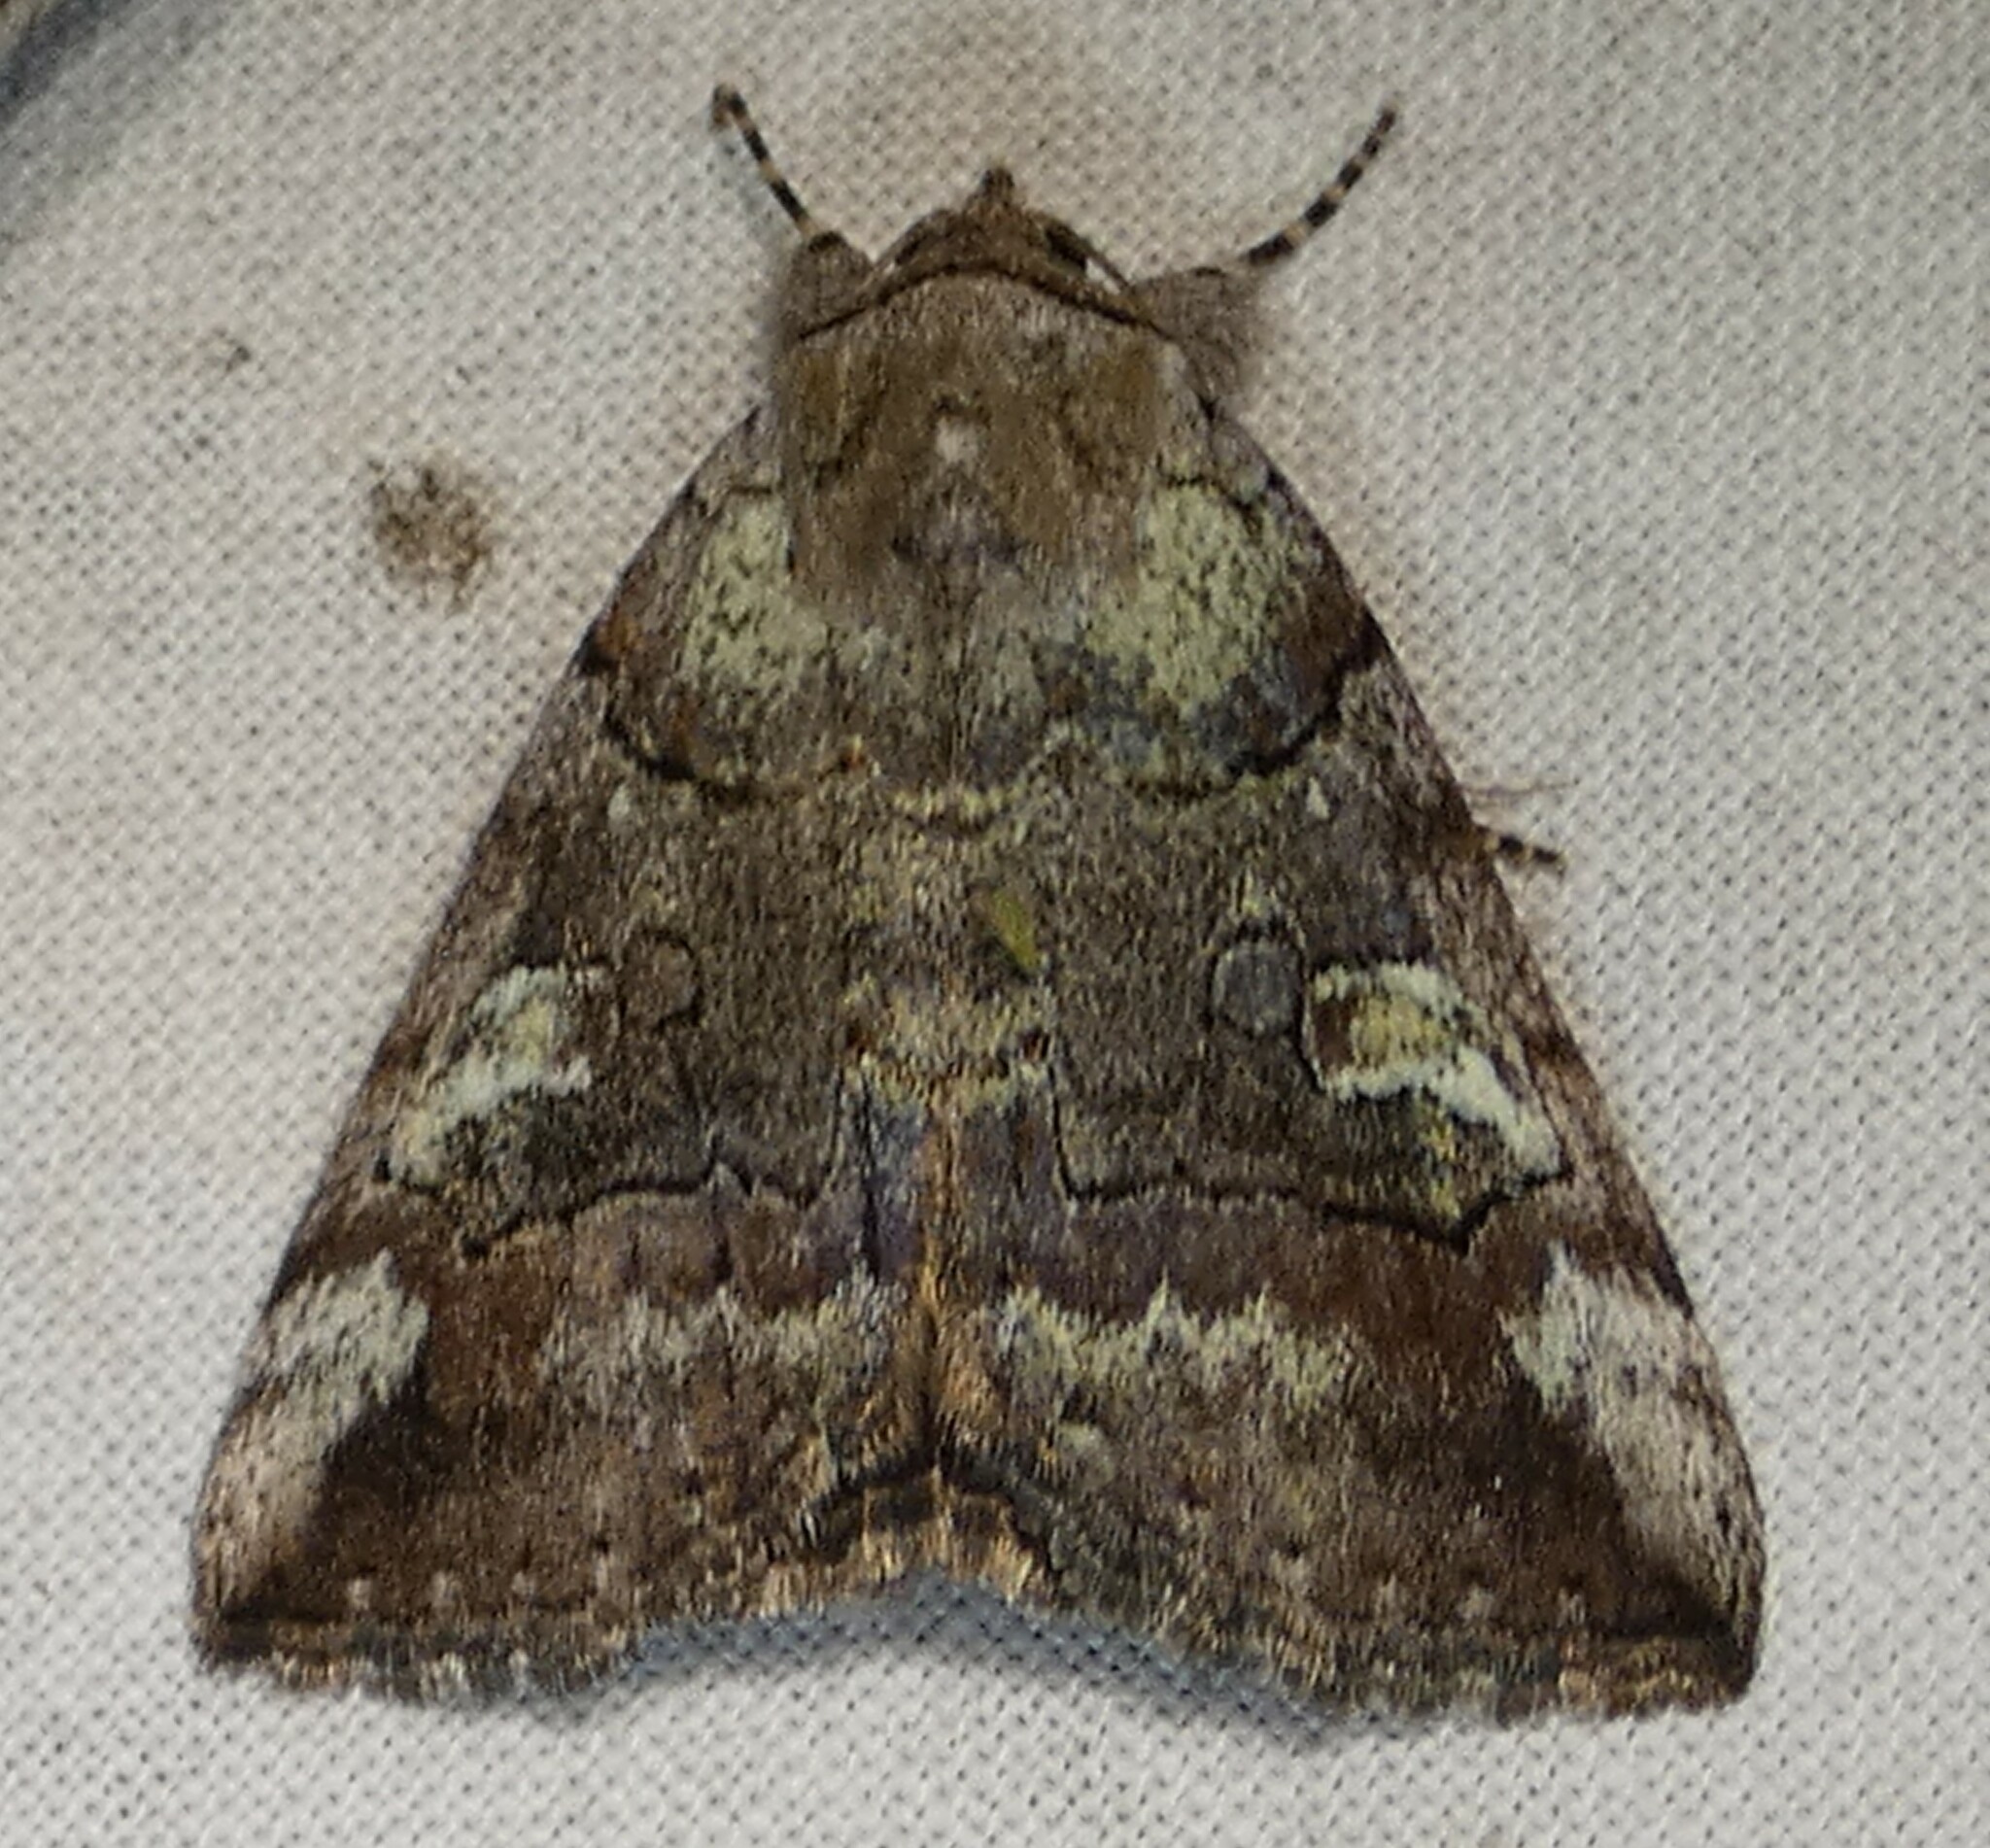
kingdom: Animalia
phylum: Arthropoda
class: Insecta
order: Lepidoptera
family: Erebidae
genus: Catocala
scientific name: Catocala similis
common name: Similar underwing
